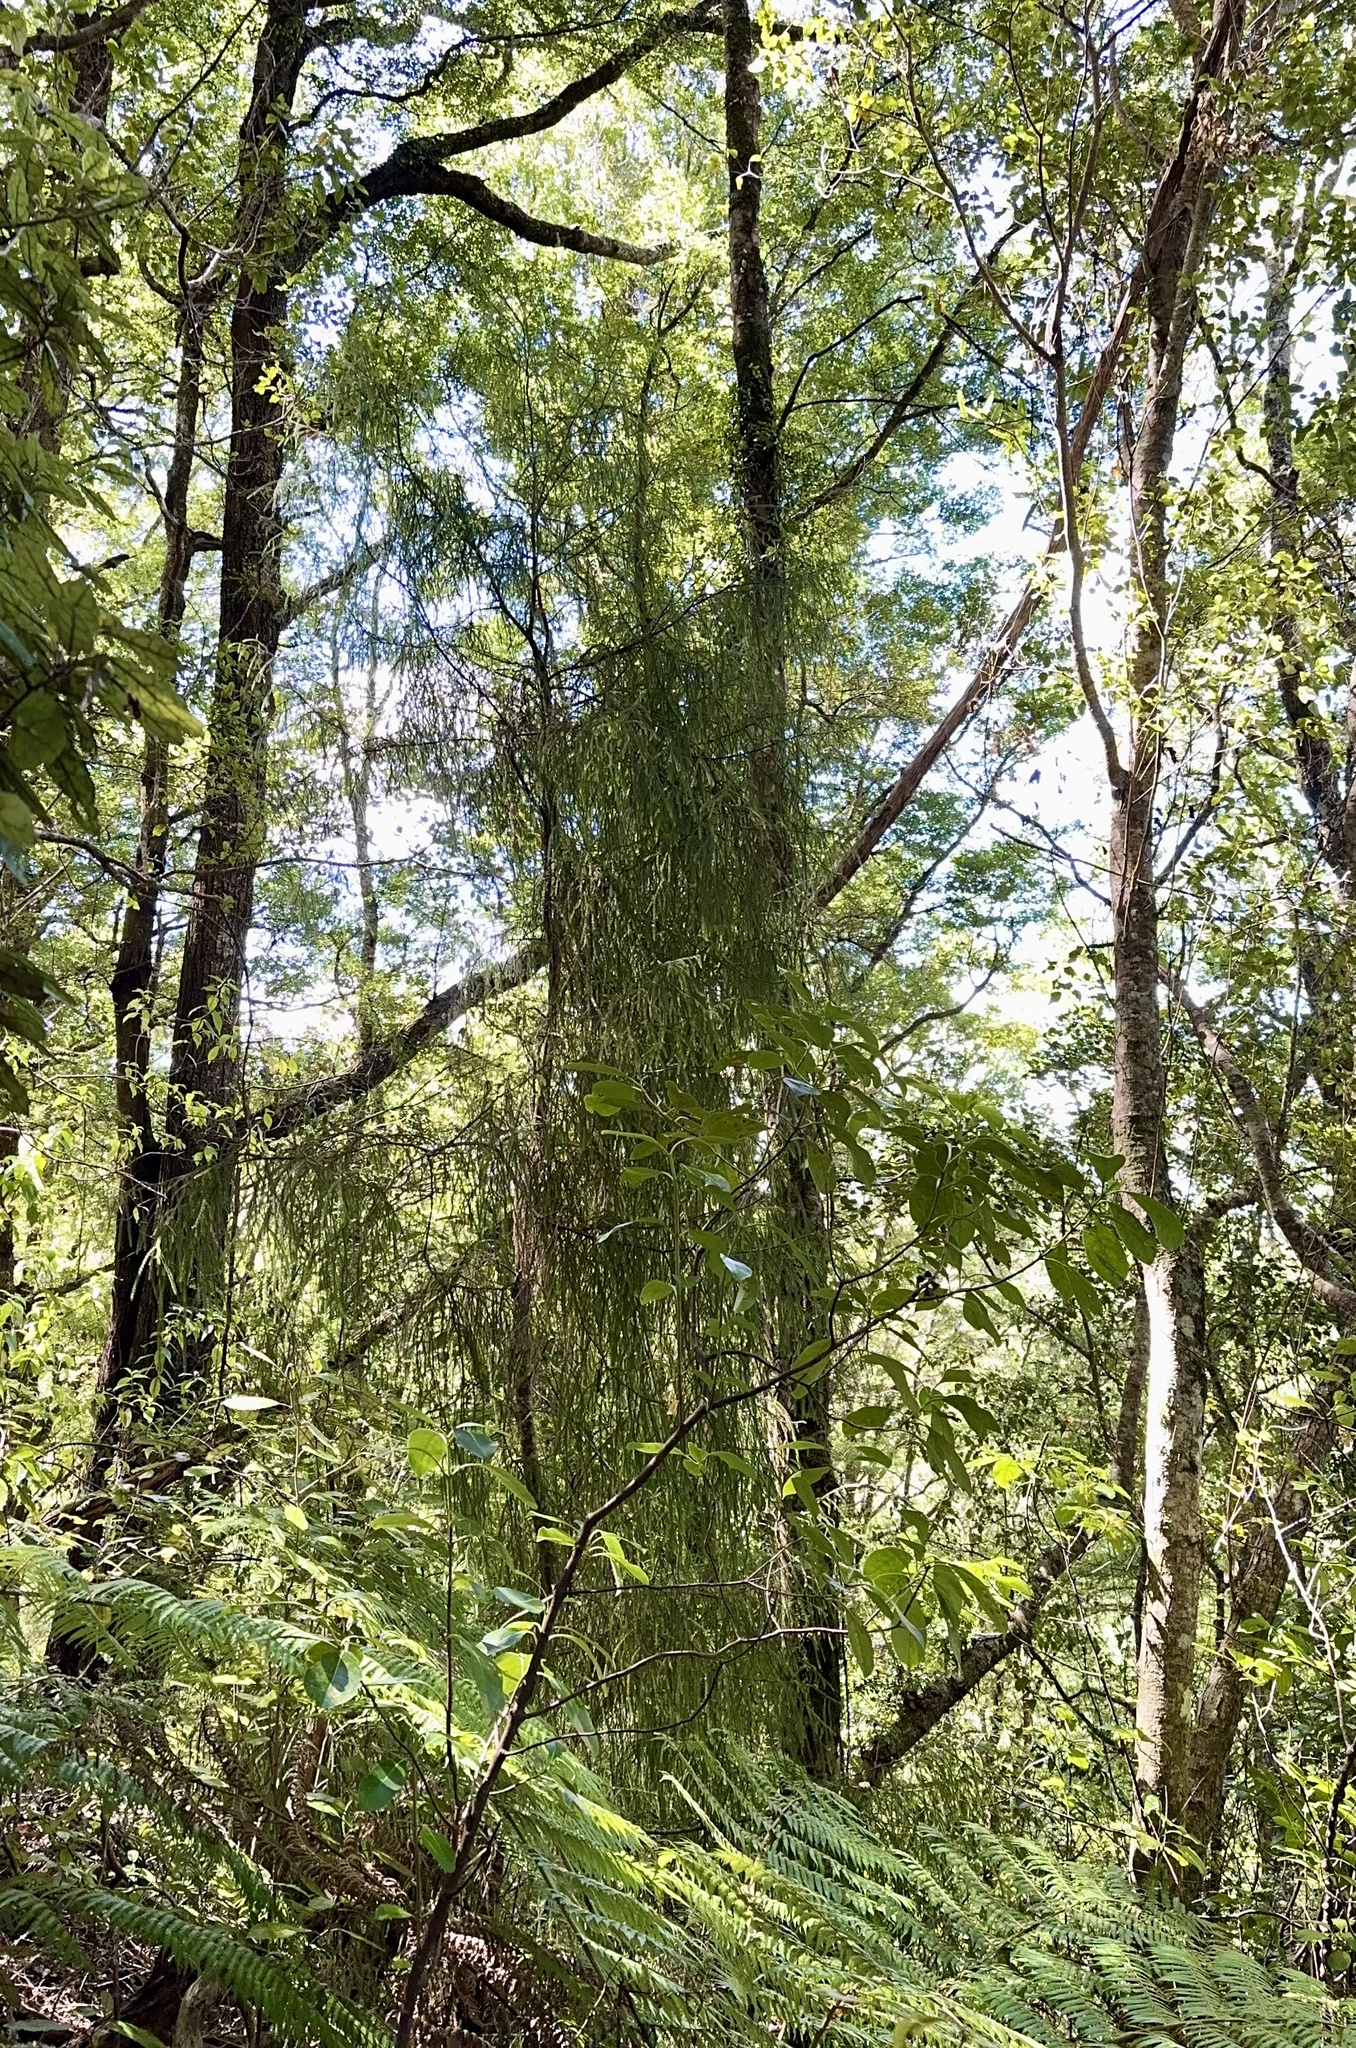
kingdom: Plantae
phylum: Tracheophyta
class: Pinopsida
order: Pinales
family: Podocarpaceae
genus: Dacrydium
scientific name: Dacrydium cupressinum
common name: Red pine
